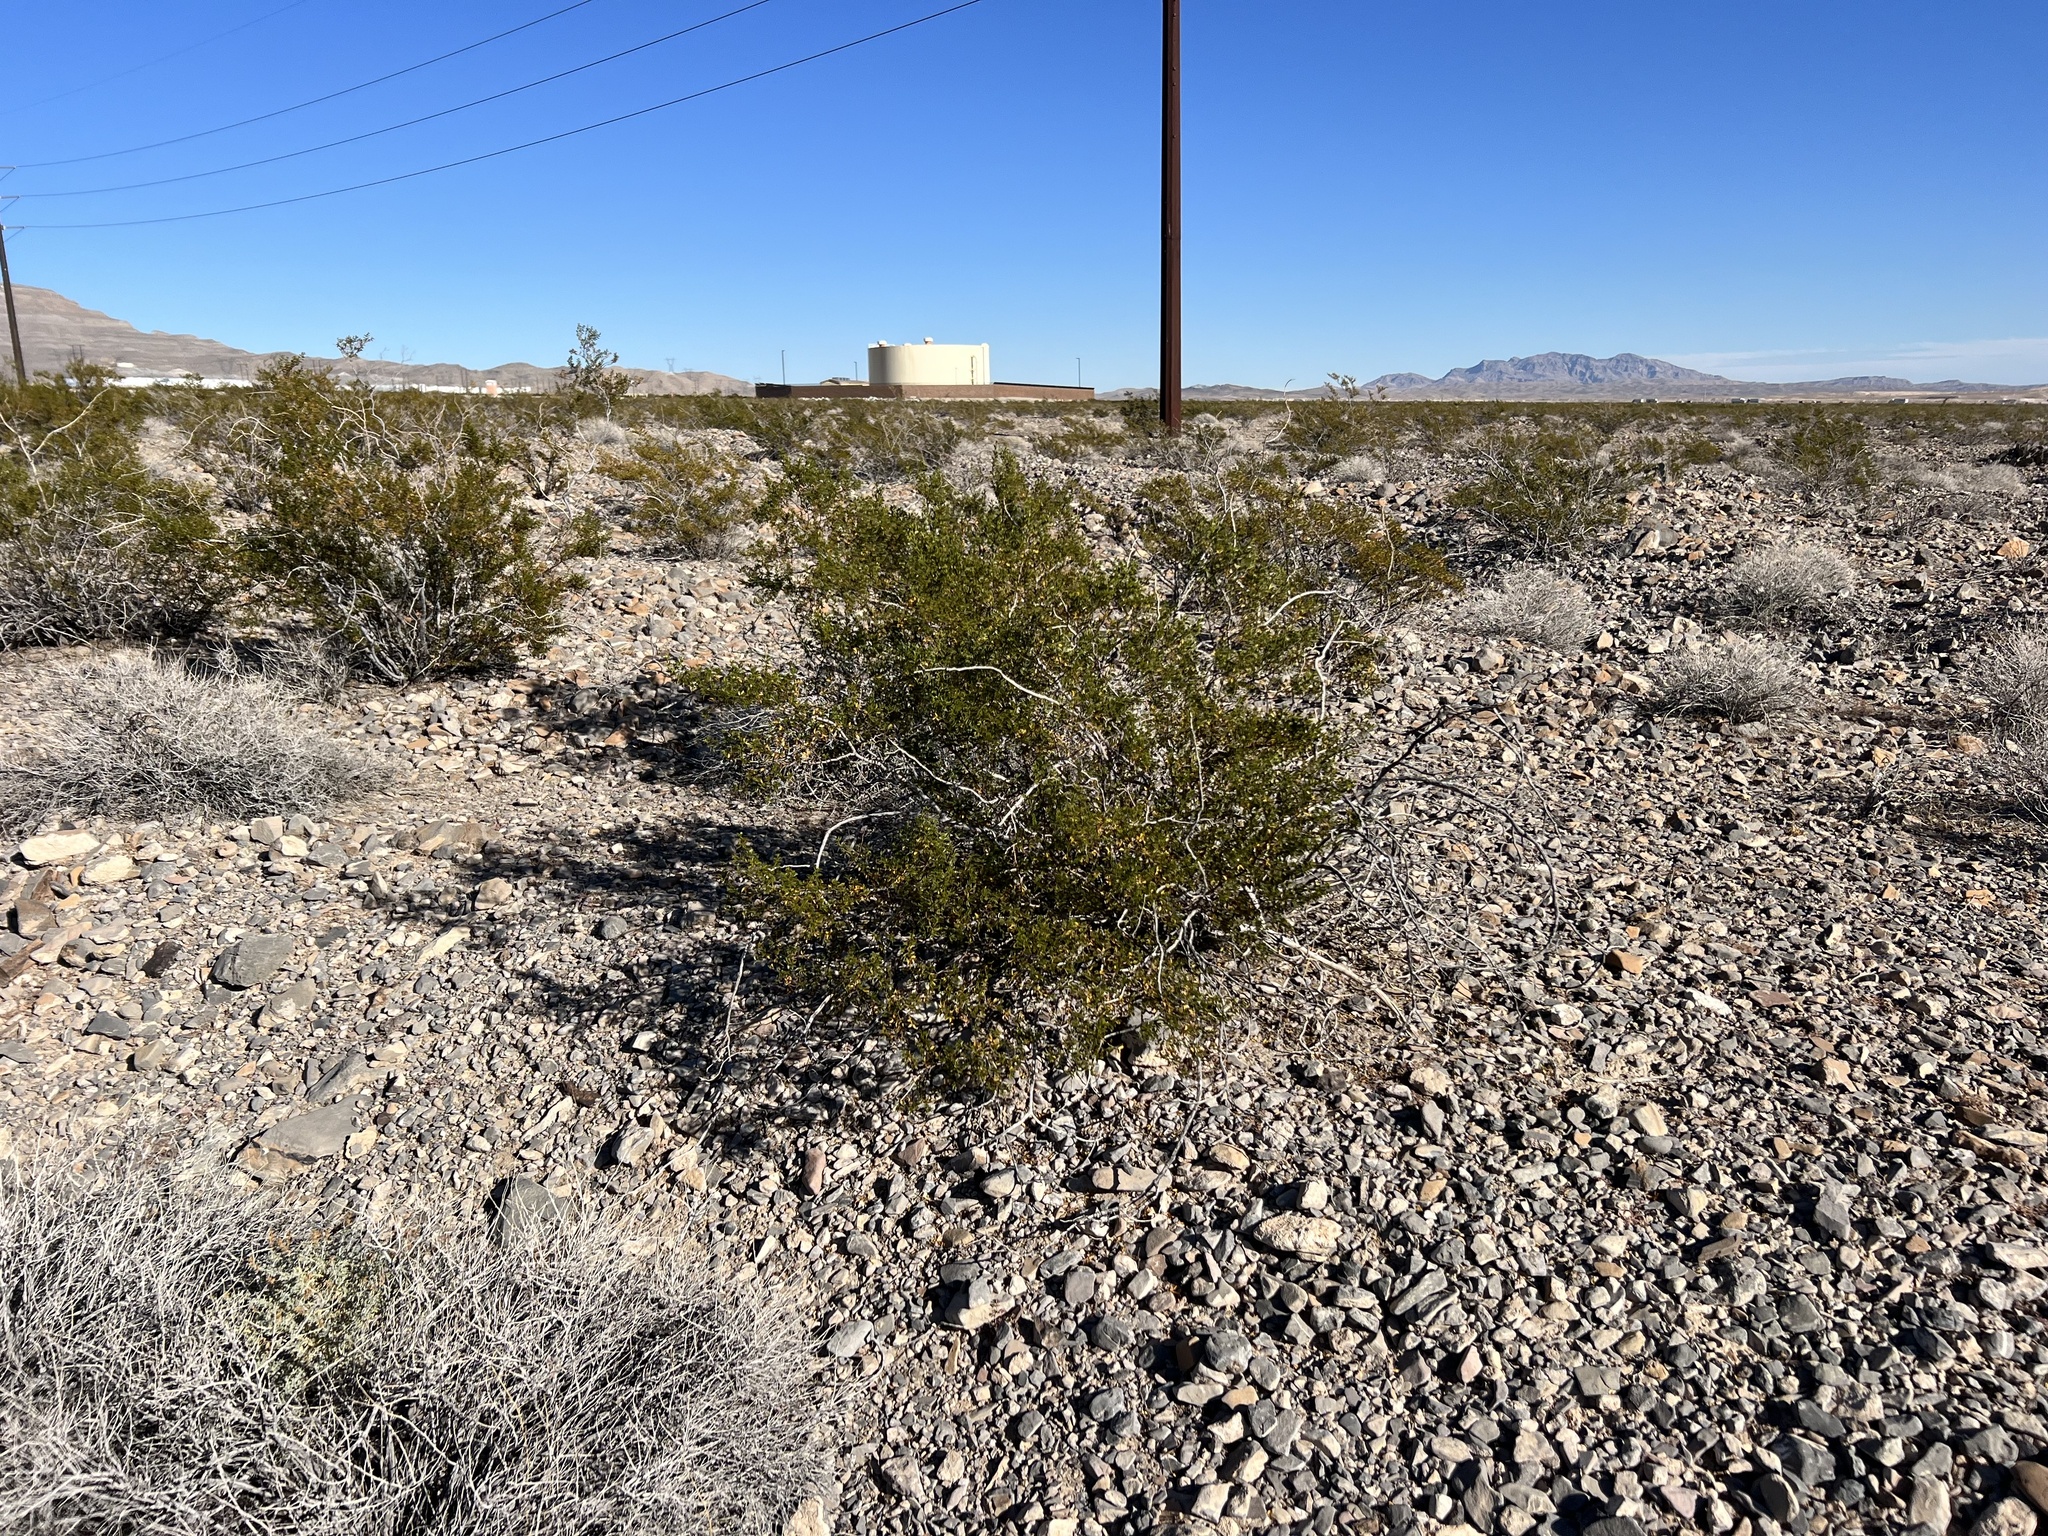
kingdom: Plantae
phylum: Tracheophyta
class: Magnoliopsida
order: Zygophyllales
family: Zygophyllaceae
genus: Larrea
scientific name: Larrea tridentata
